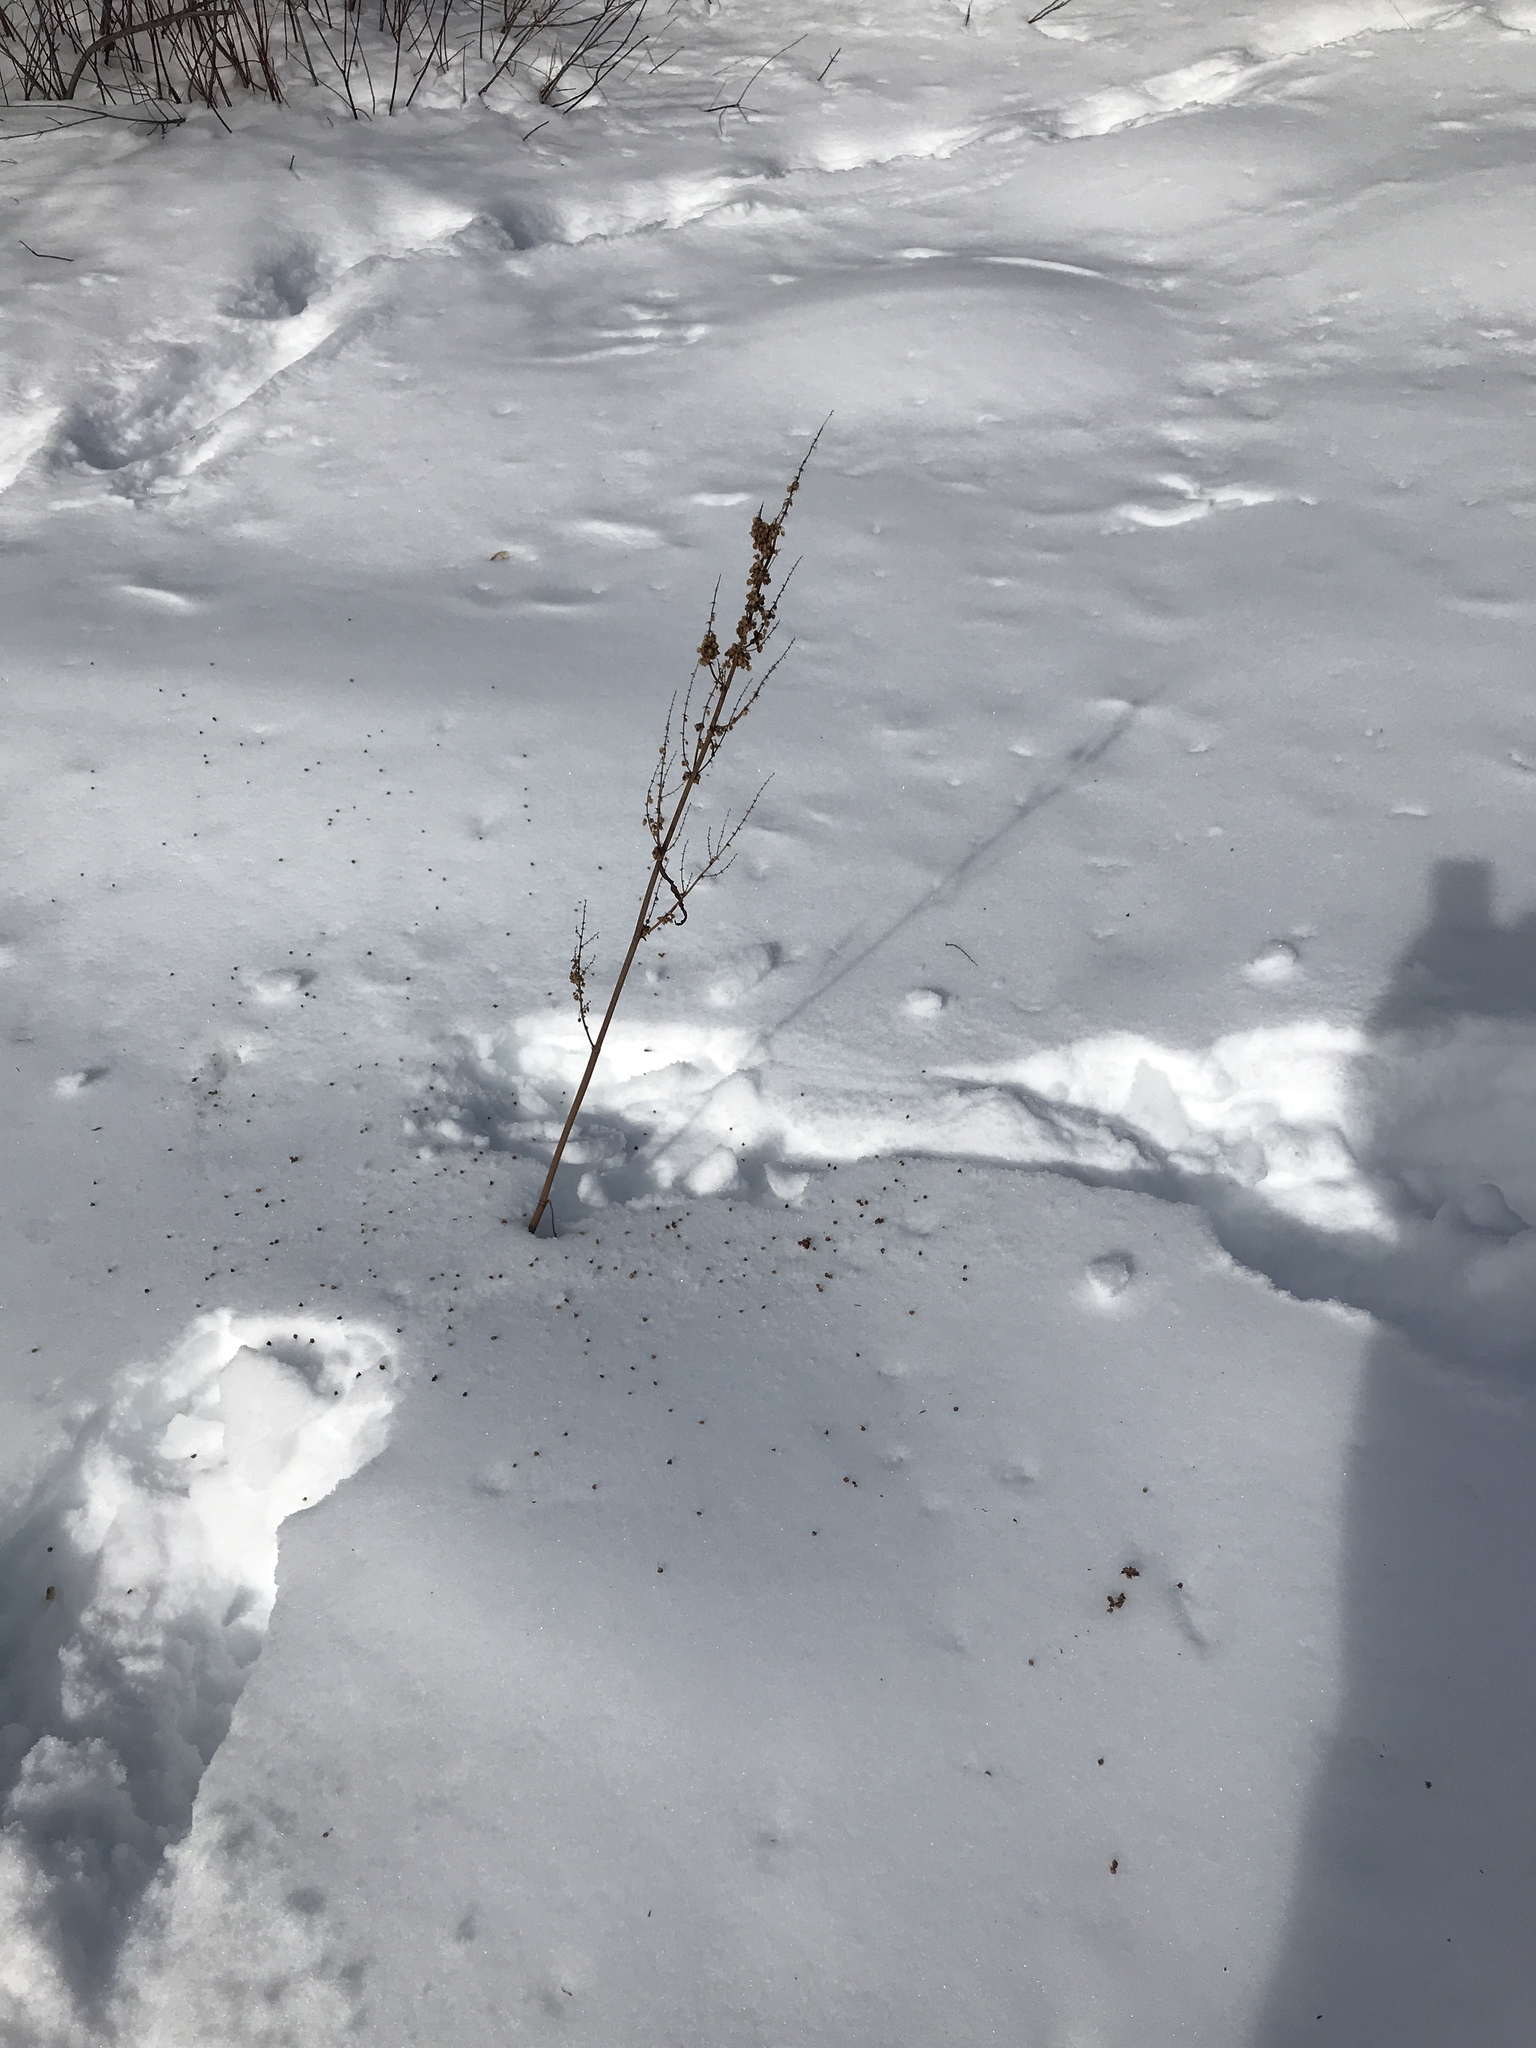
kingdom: Plantae
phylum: Tracheophyta
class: Magnoliopsida
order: Caryophyllales
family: Polygonaceae
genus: Rumex
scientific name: Rumex britannica
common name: British dock
